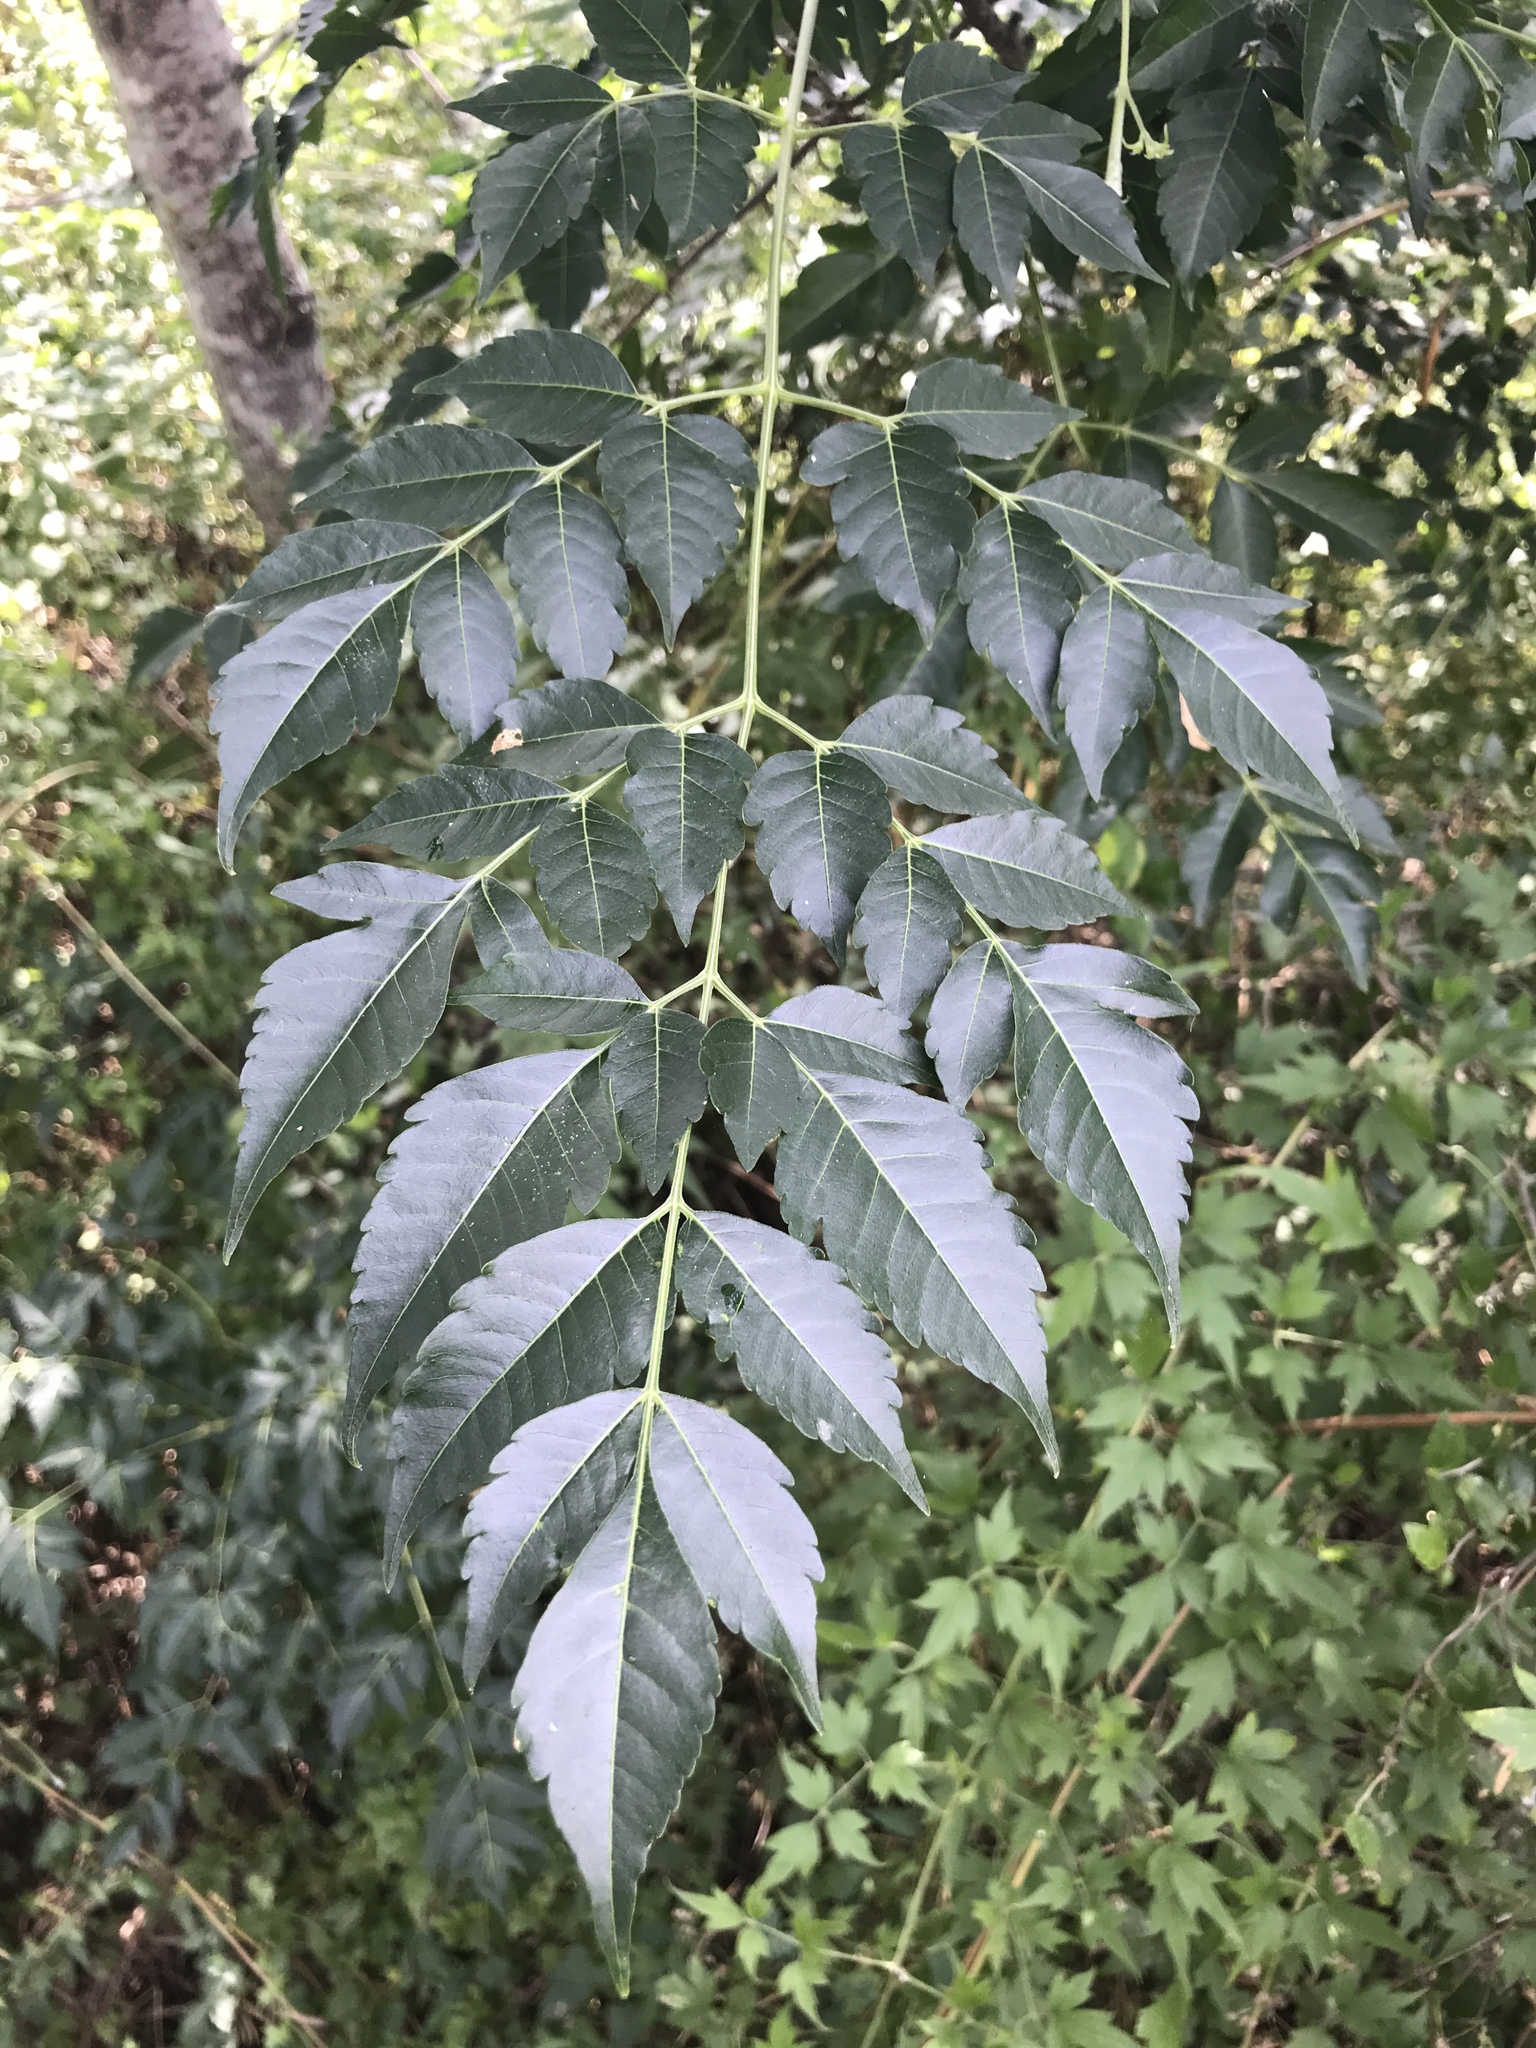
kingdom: Plantae
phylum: Tracheophyta
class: Magnoliopsida
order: Sapindales
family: Meliaceae
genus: Melia
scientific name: Melia azedarach
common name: Chinaberrytree
